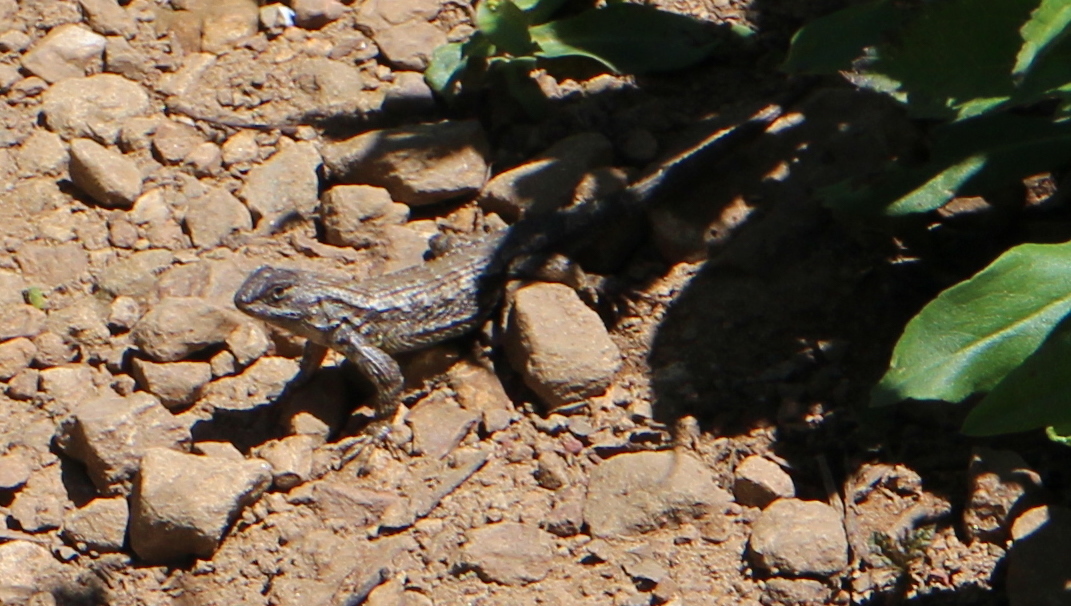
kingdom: Animalia
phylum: Chordata
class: Squamata
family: Phrynosomatidae
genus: Sceloporus
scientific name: Sceloporus occidentalis
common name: Western fence lizard
